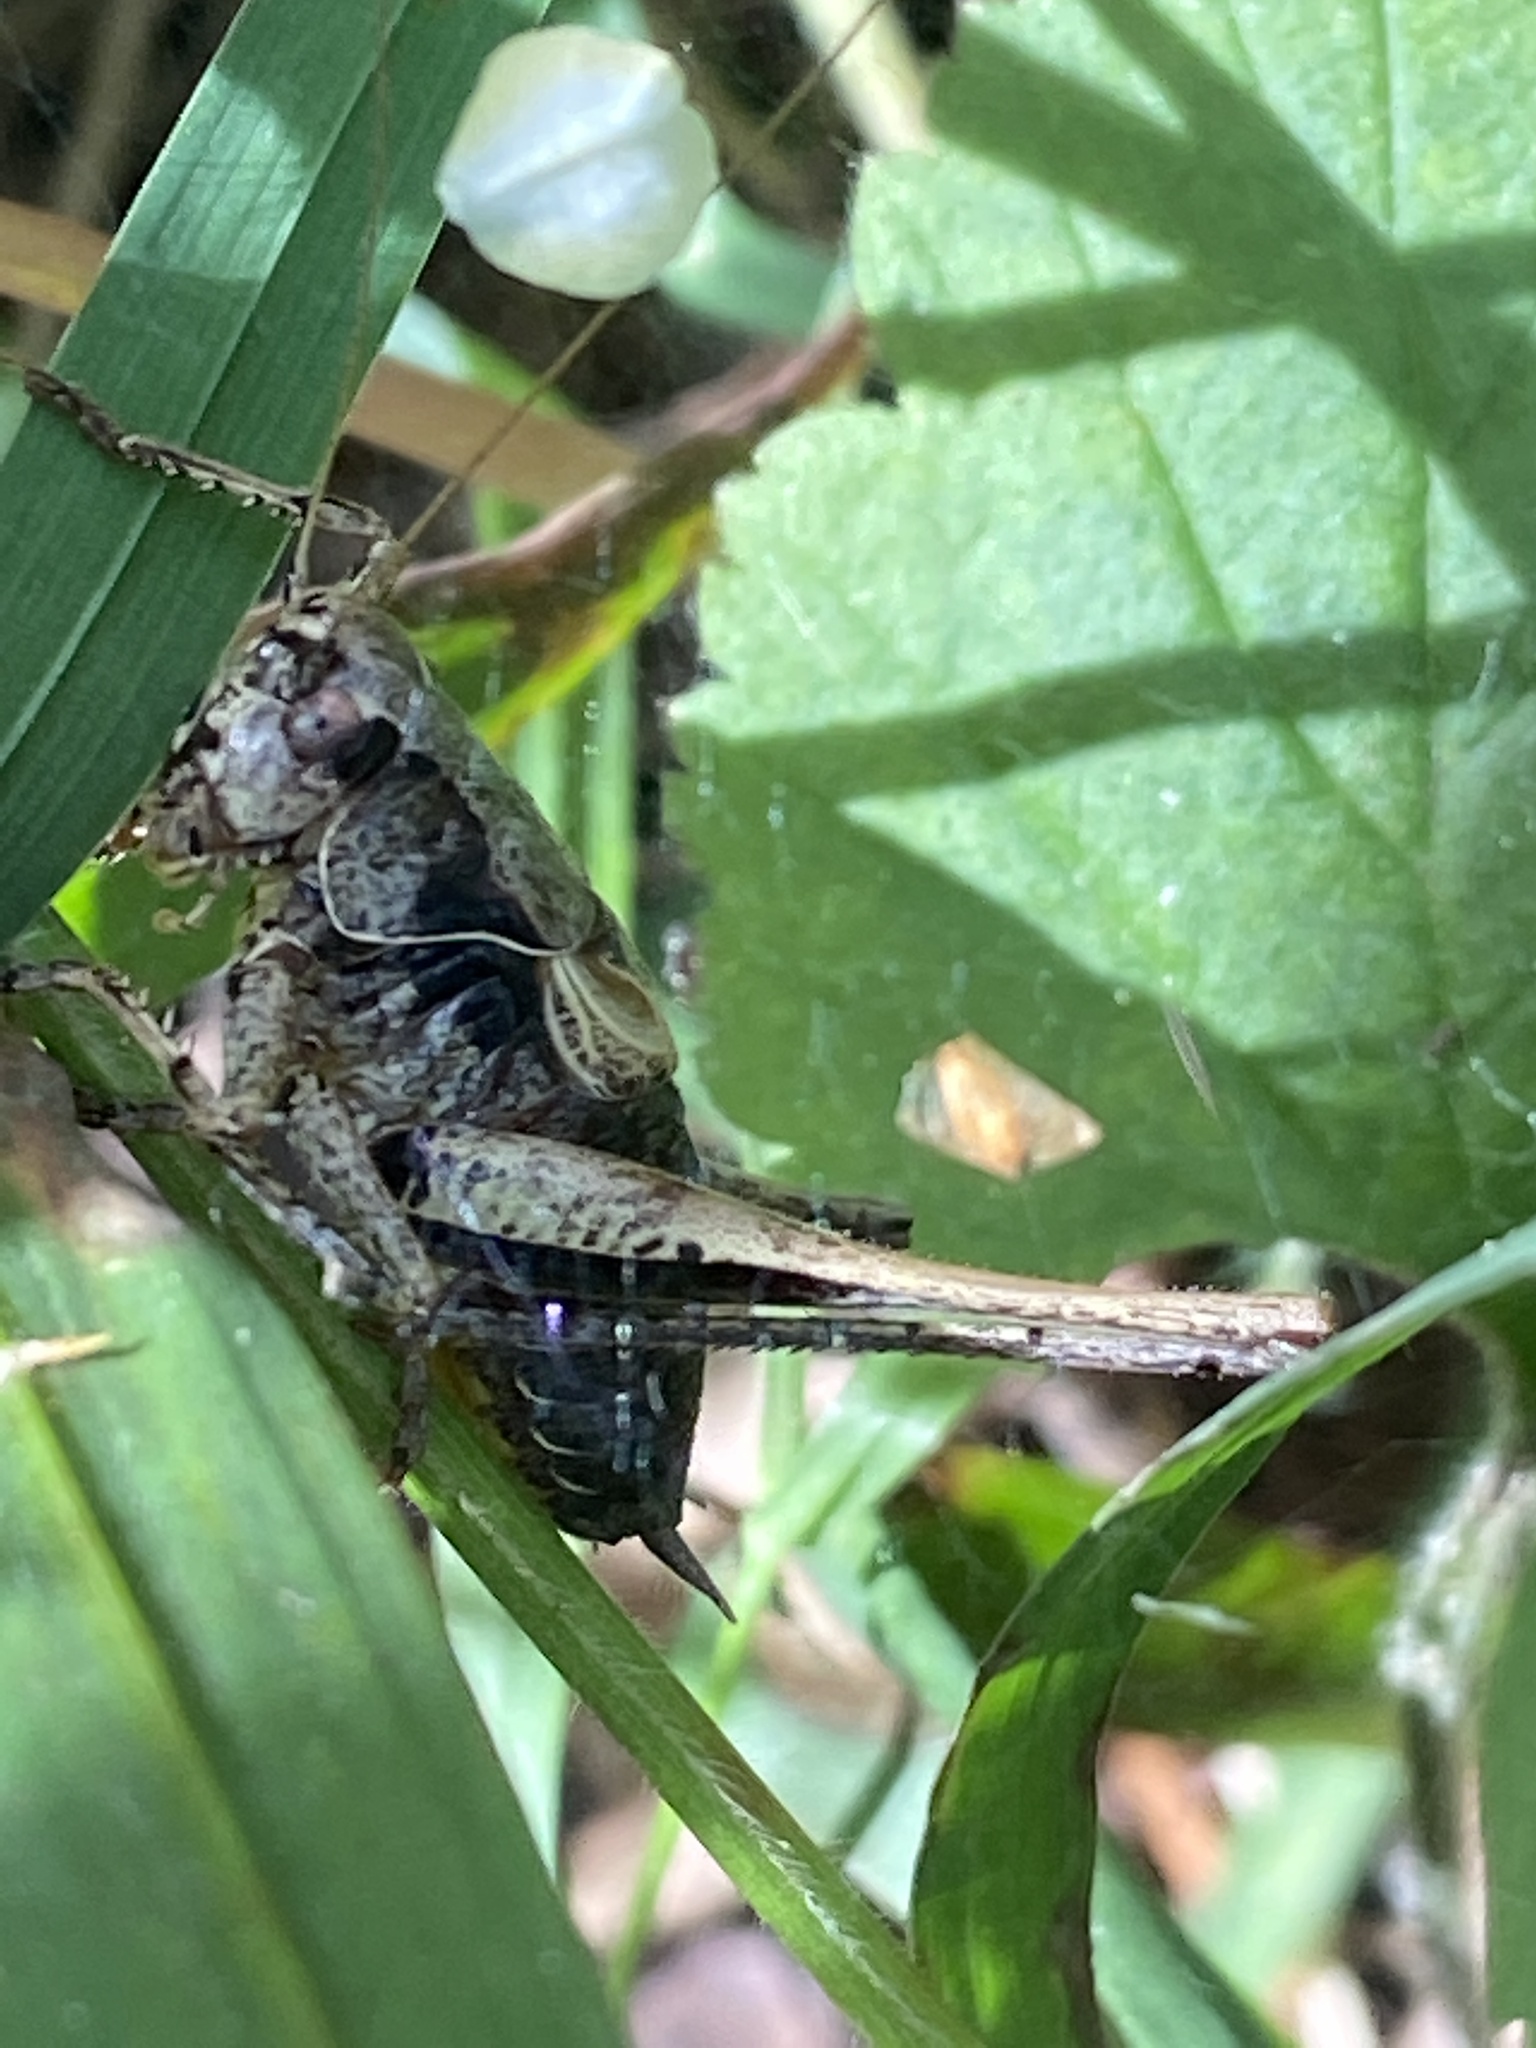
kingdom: Animalia
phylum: Arthropoda
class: Insecta
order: Orthoptera
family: Tettigoniidae
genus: Pholidoptera
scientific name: Pholidoptera griseoaptera
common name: Dark bush-cricket
